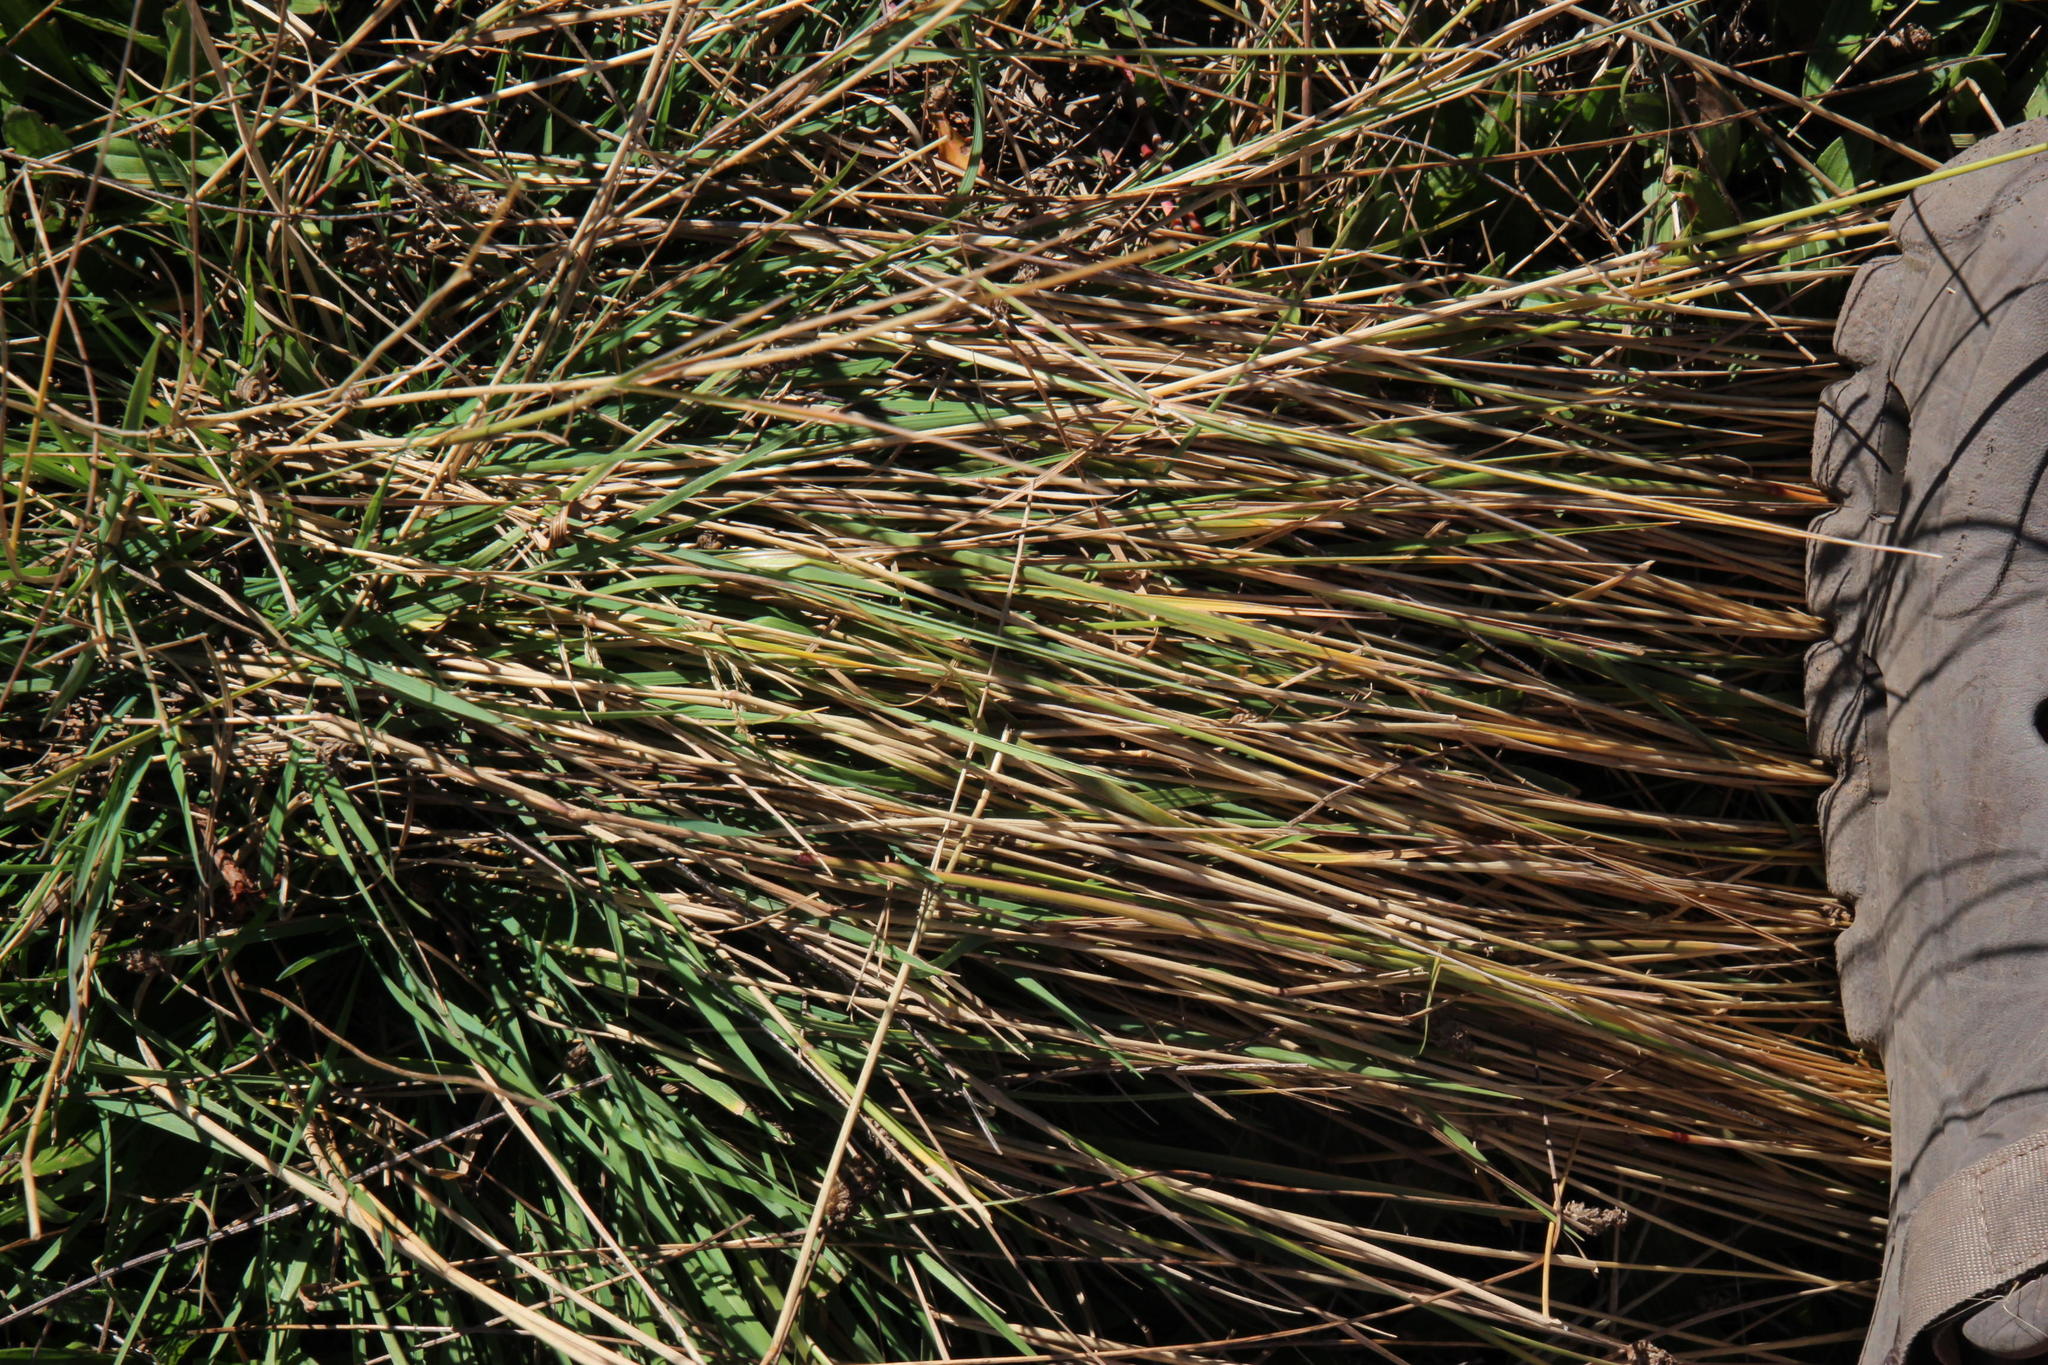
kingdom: Plantae
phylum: Tracheophyta
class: Liliopsida
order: Poales
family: Poaceae
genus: Lachnagrostis
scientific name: Lachnagrostis lachnantha
